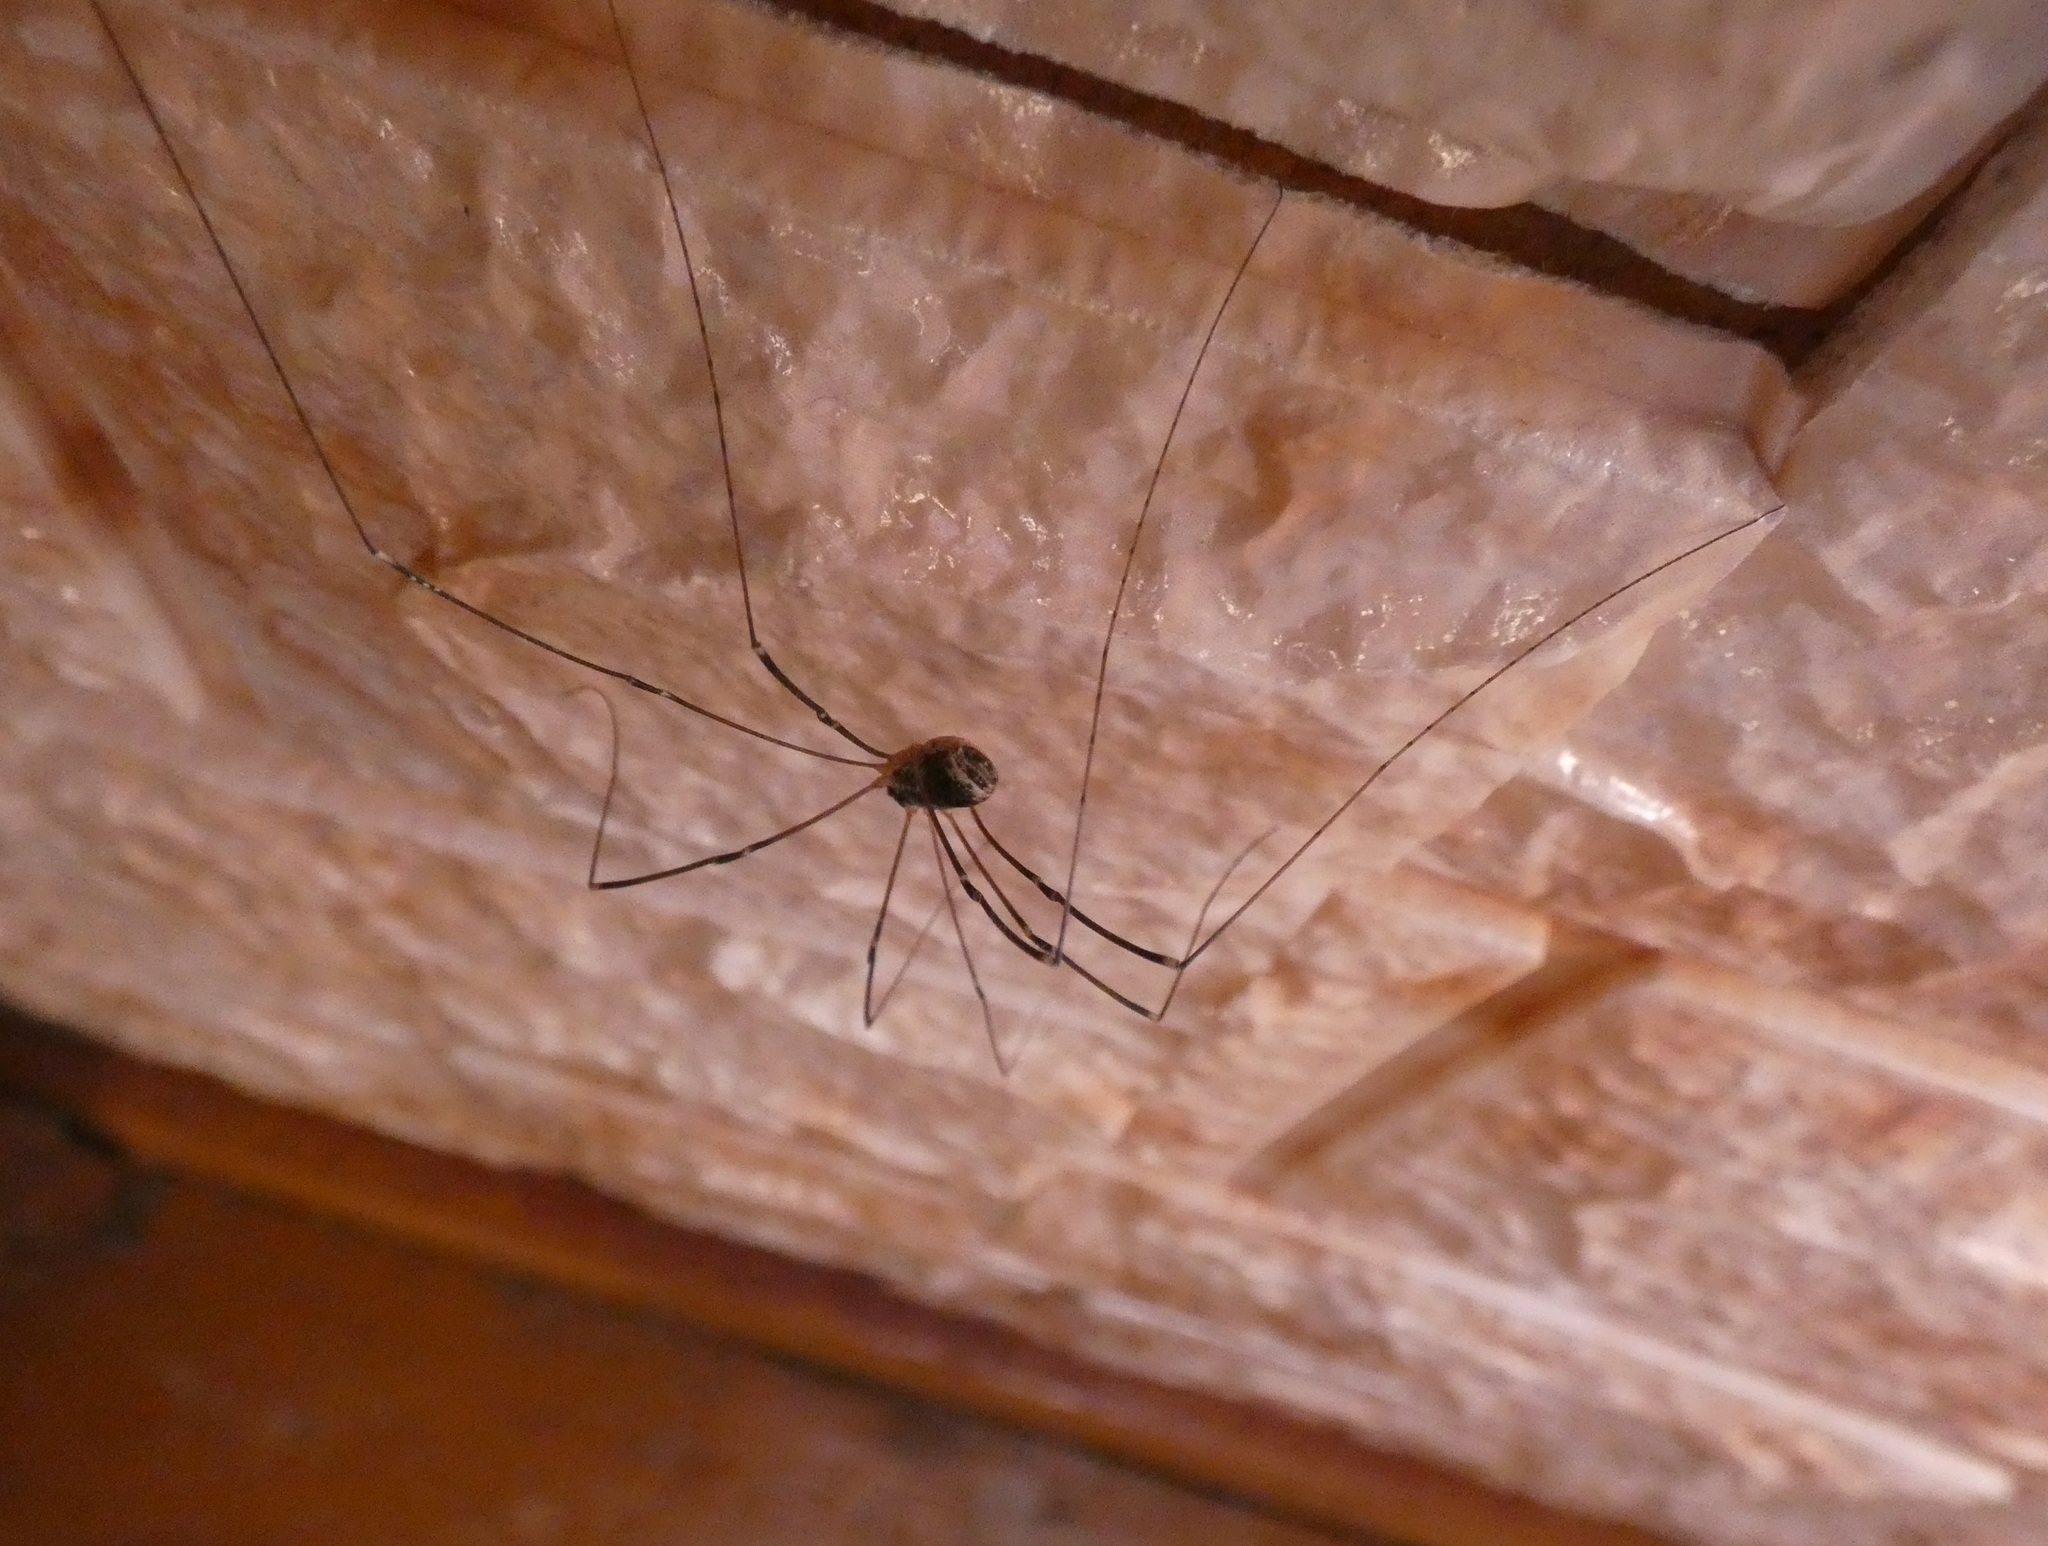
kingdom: Animalia
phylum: Arthropoda
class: Arachnida
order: Opiliones
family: Sclerosomatidae
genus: Leiobunum
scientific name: Leiobunum gracile
